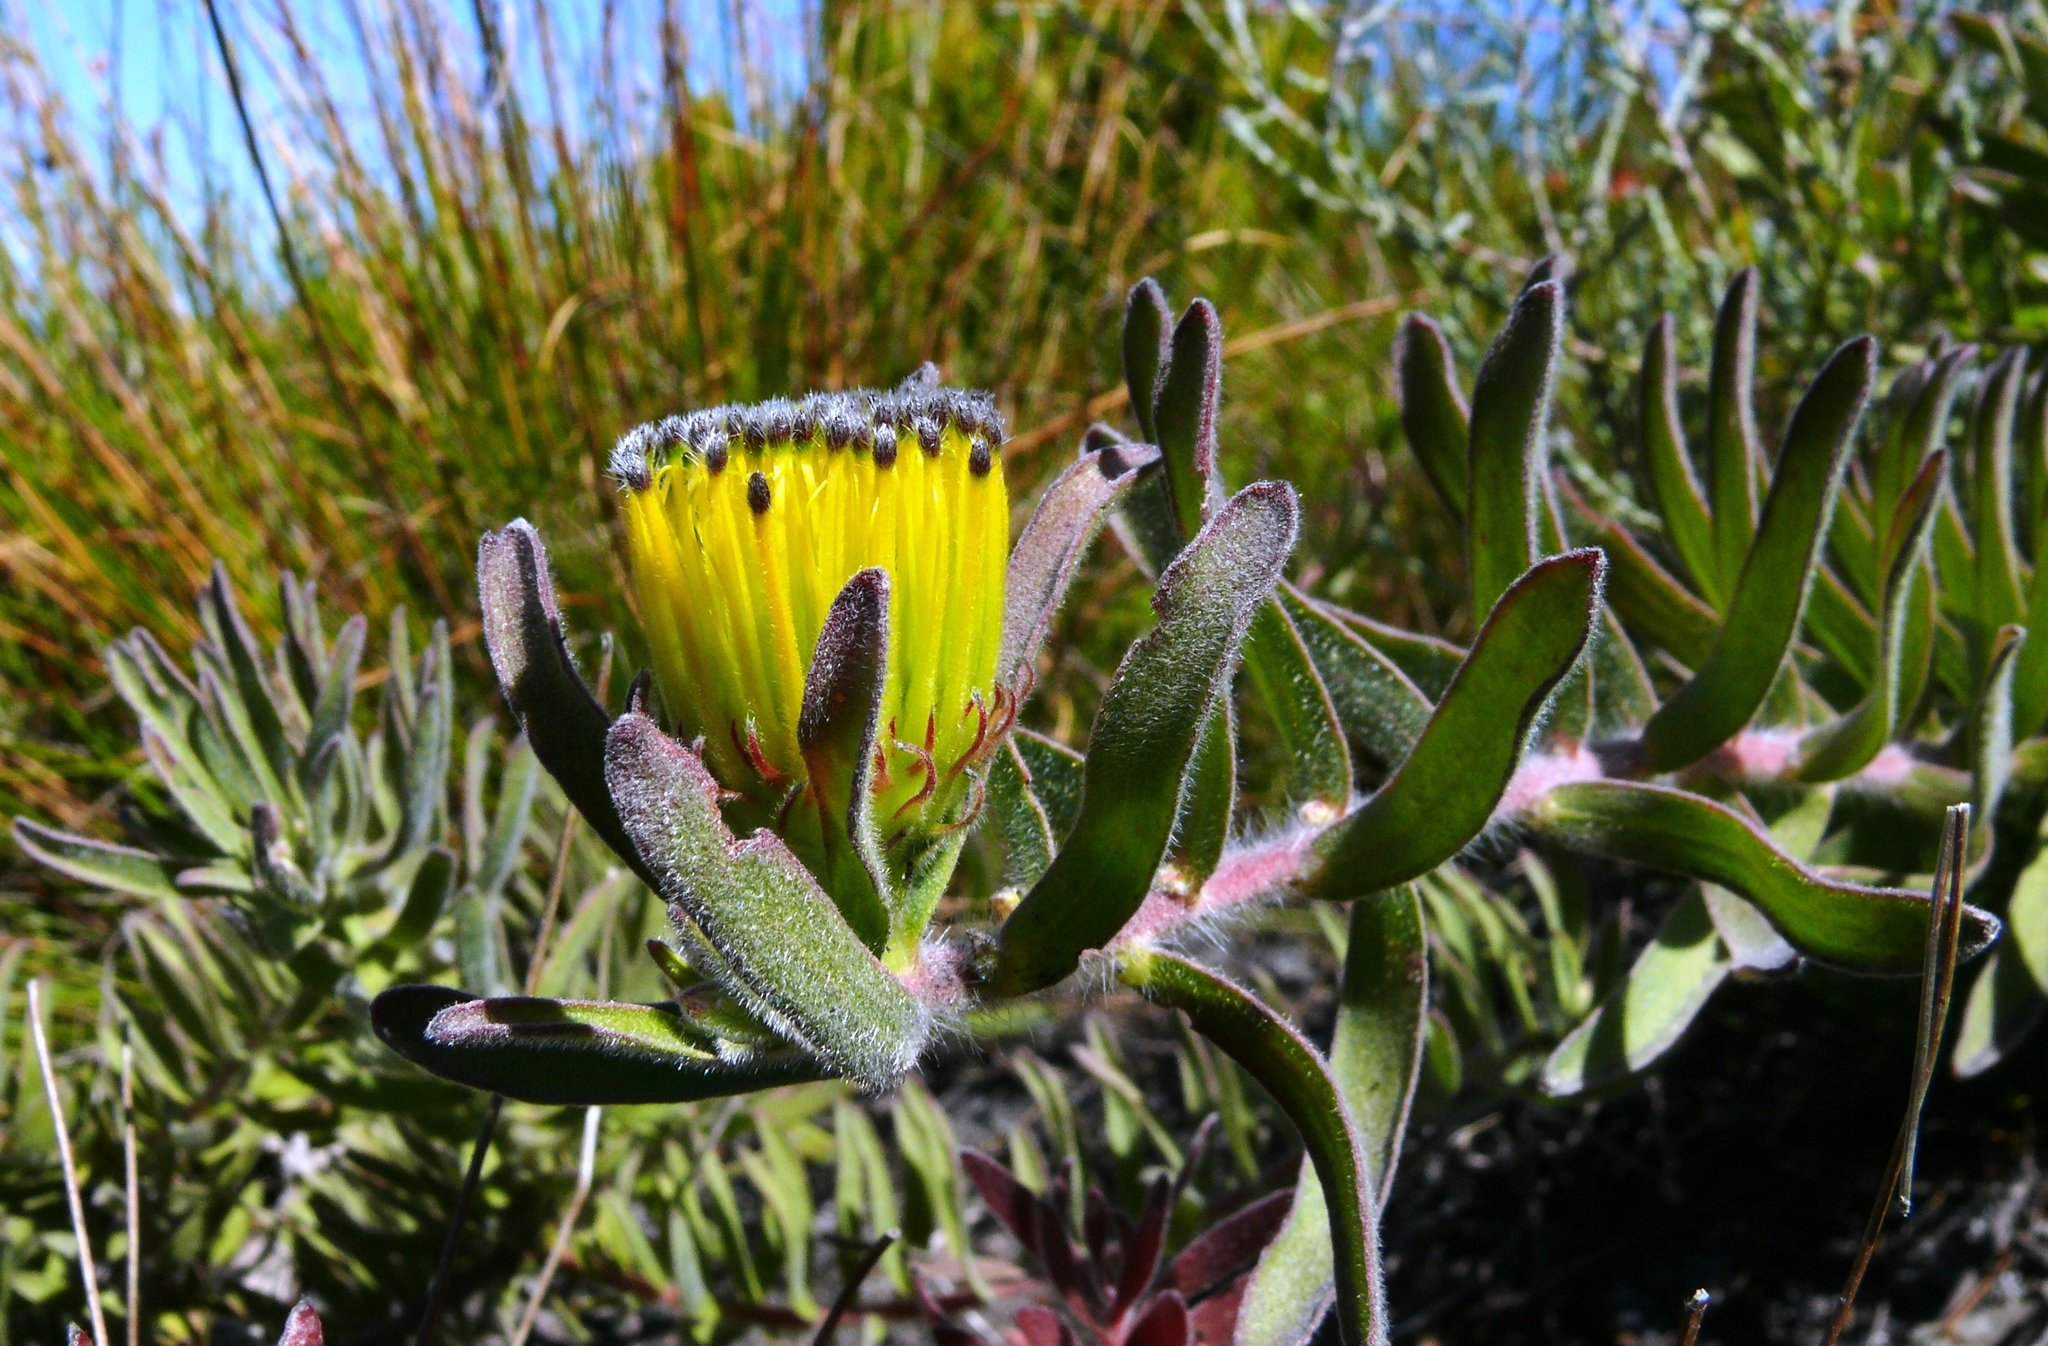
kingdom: Plantae
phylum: Tracheophyta
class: Magnoliopsida
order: Proteales
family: Proteaceae
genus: Leucospermum
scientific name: Leucospermum gracile
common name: Hermanus pincushion
